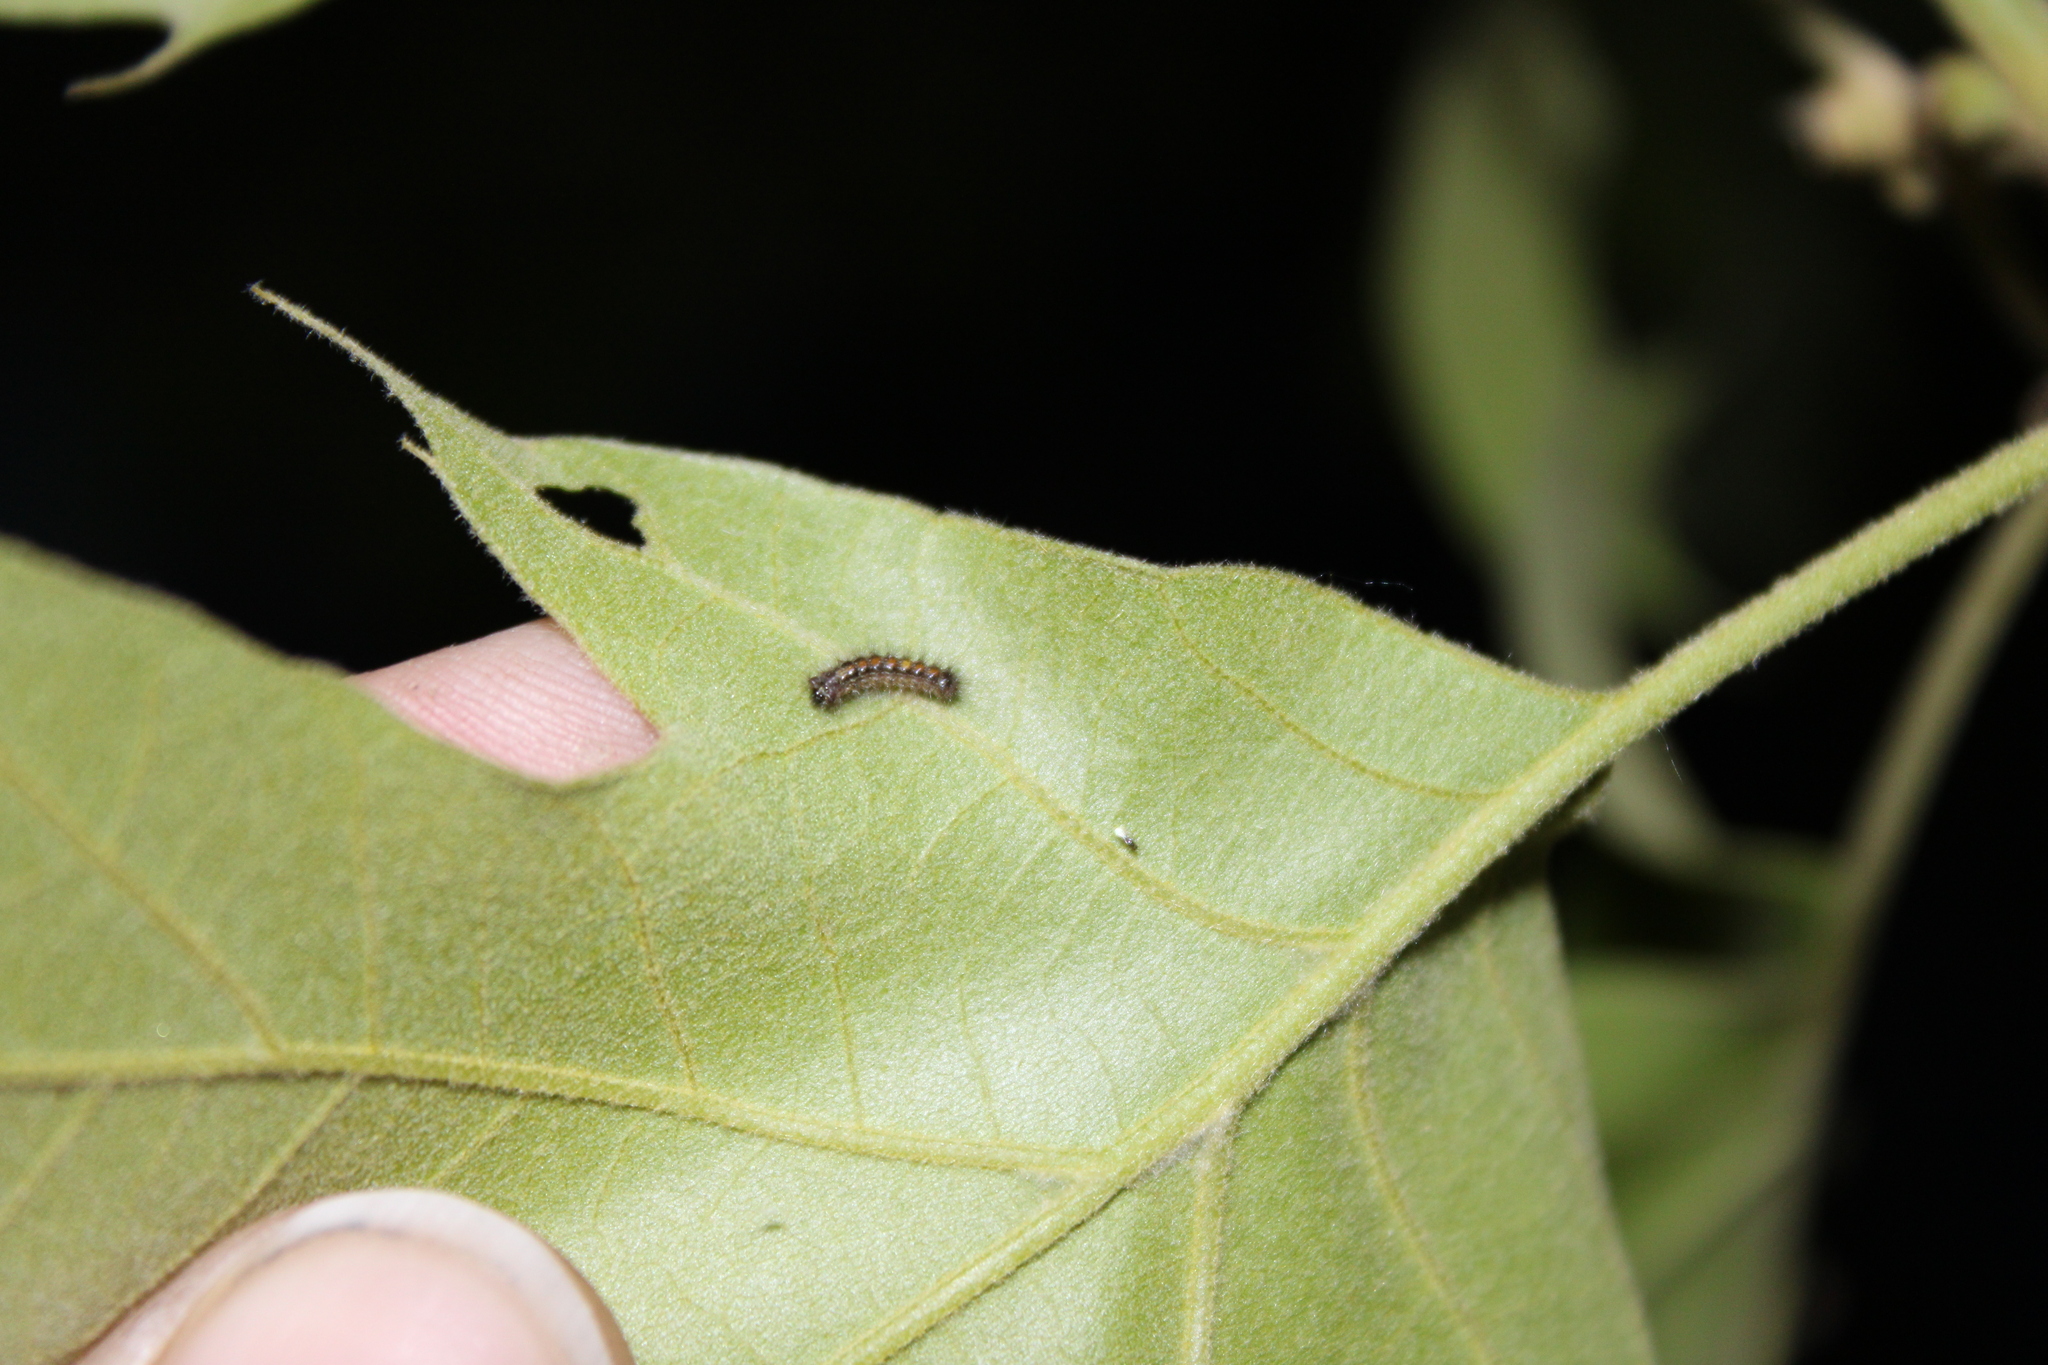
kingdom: Animalia
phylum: Arthropoda
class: Insecta
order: Lepidoptera
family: Erebidae
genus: Lymantria
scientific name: Lymantria dispar
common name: Gypsy moth
